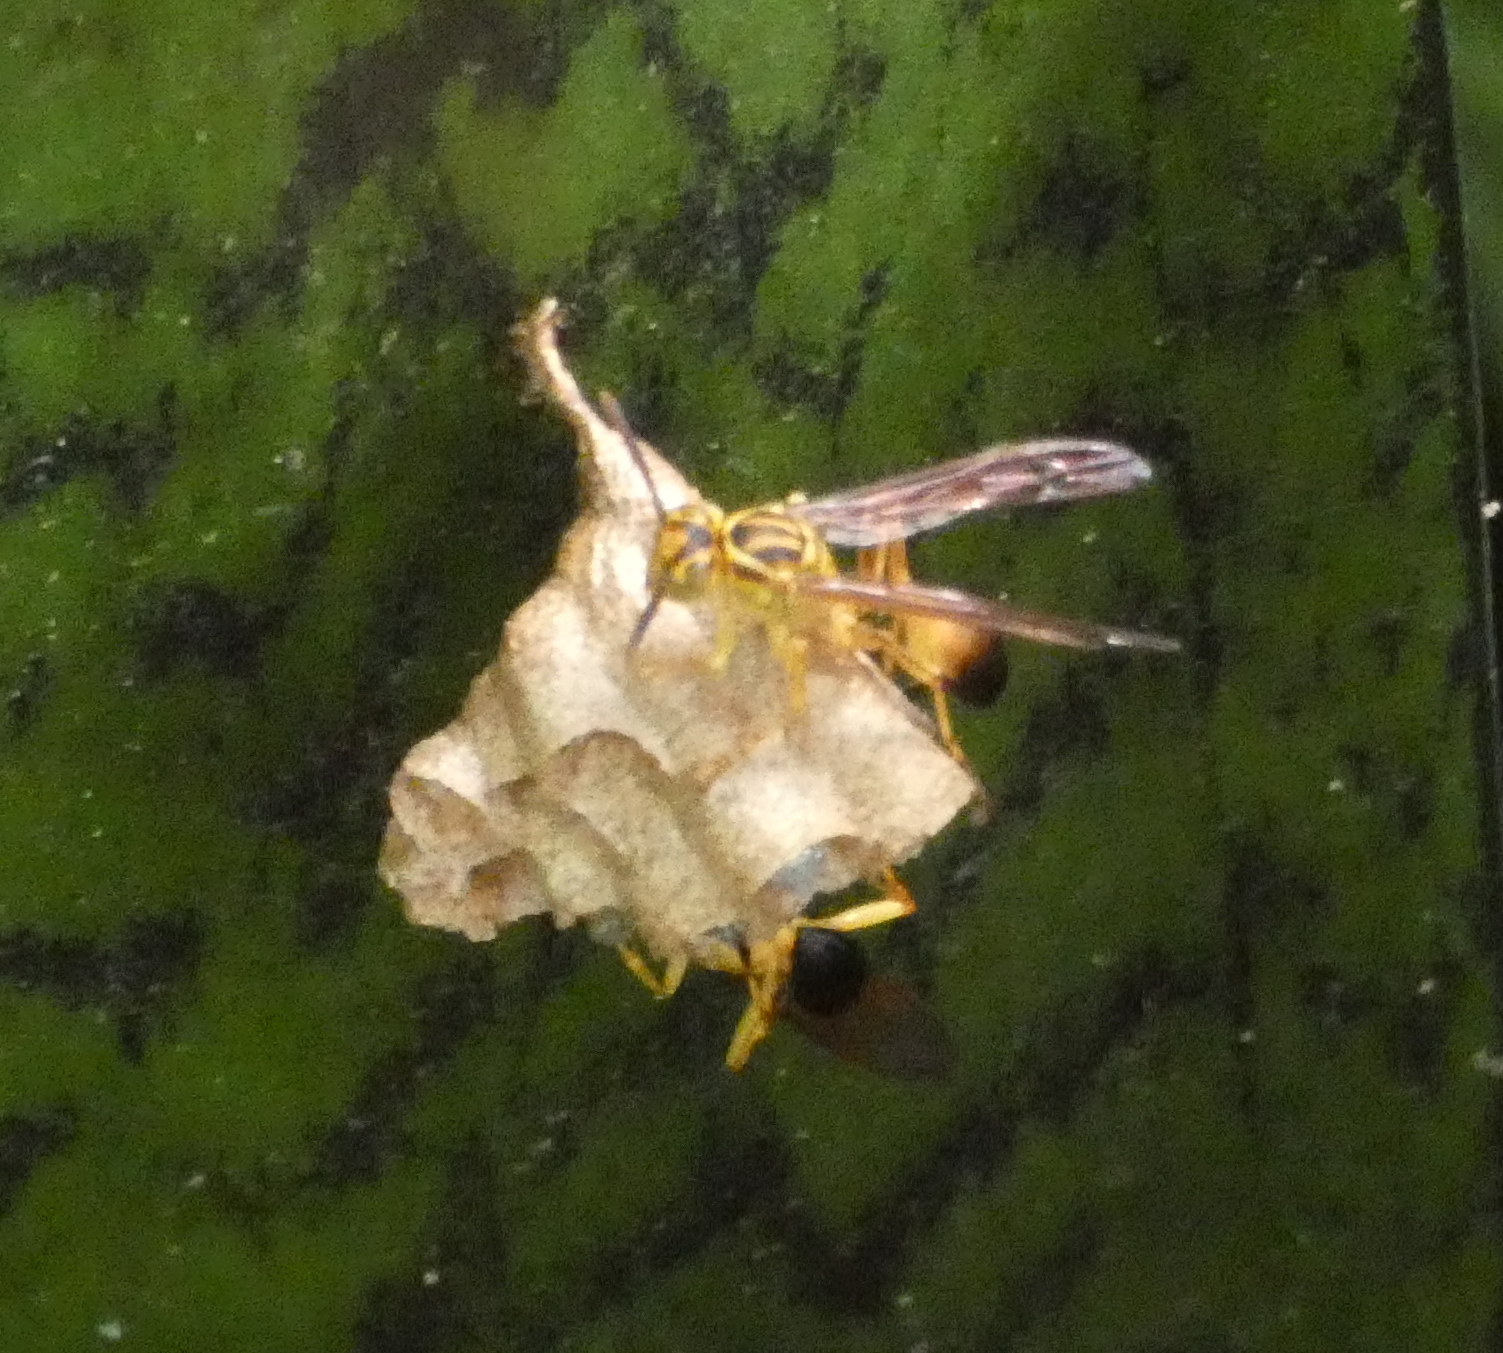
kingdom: Animalia
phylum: Arthropoda
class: Insecta
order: Hymenoptera
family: Vespidae
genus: Mischocyttarus
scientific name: Mischocyttarus cerberus
